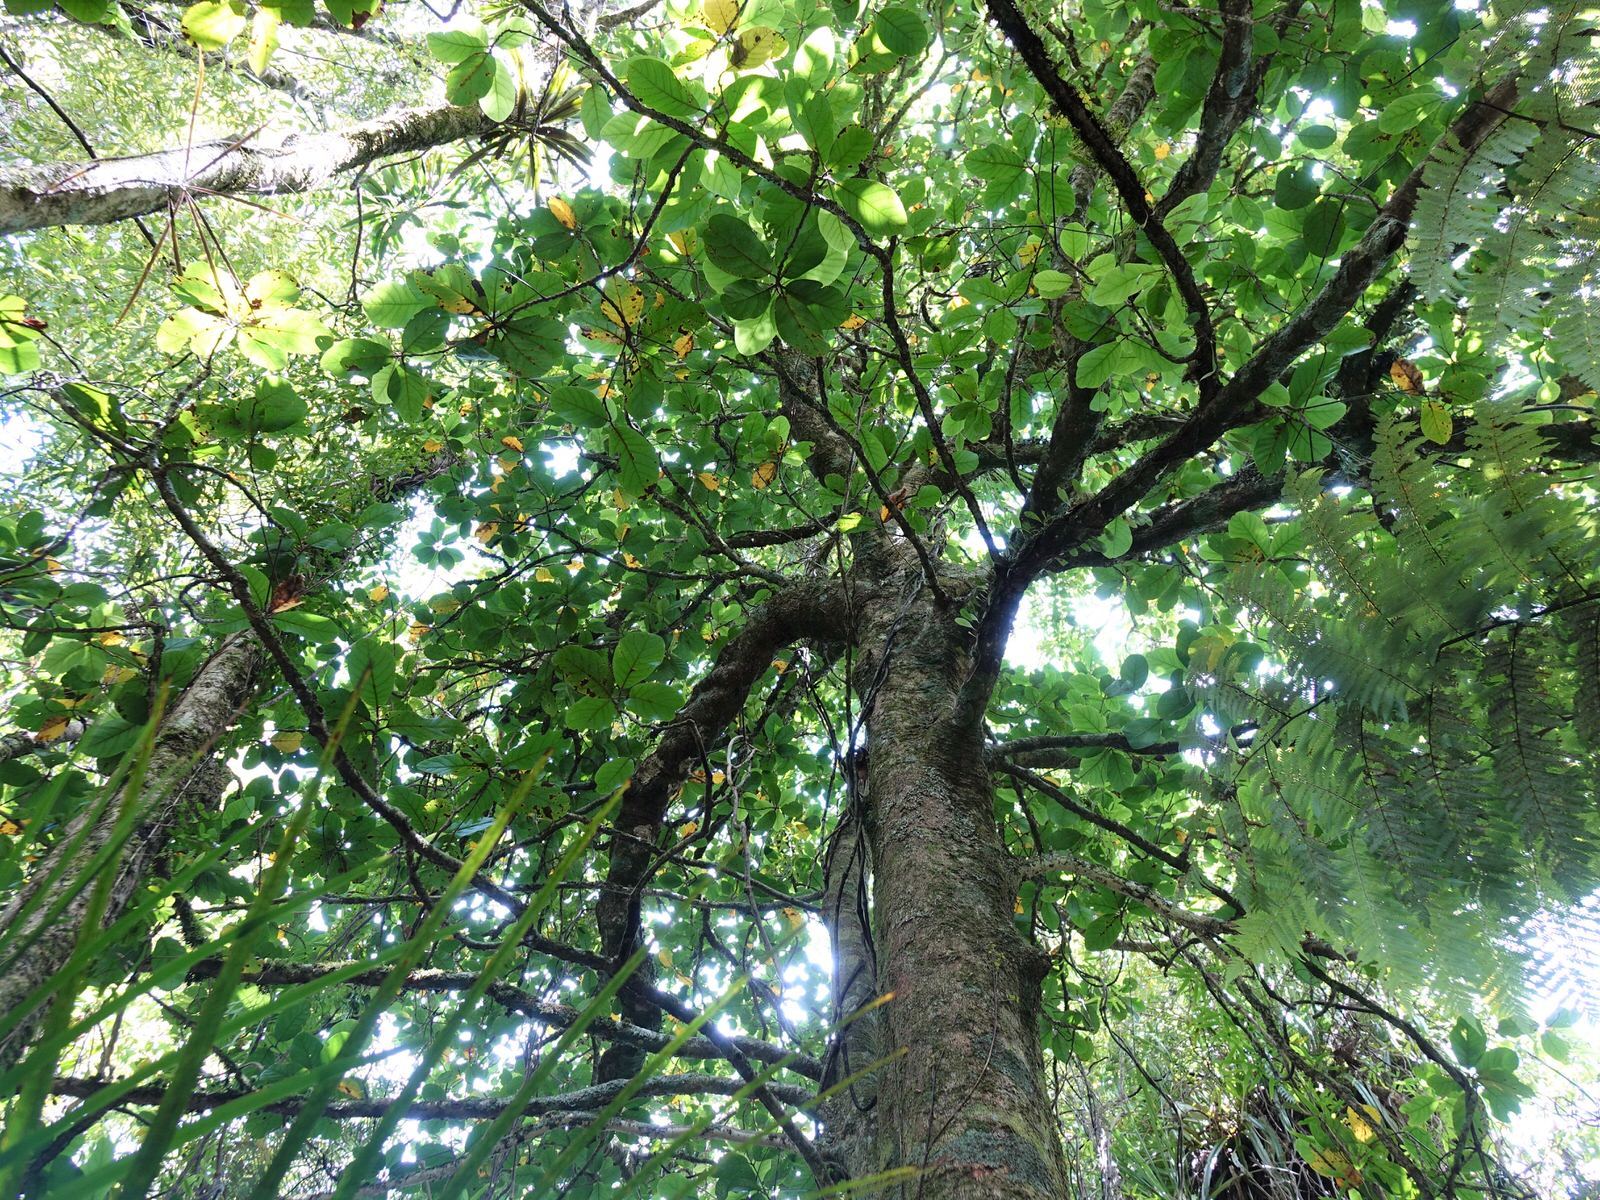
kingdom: Plantae
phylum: Tracheophyta
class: Magnoliopsida
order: Laurales
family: Lauraceae
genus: Beilschmiedia
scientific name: Beilschmiedia tarairi
